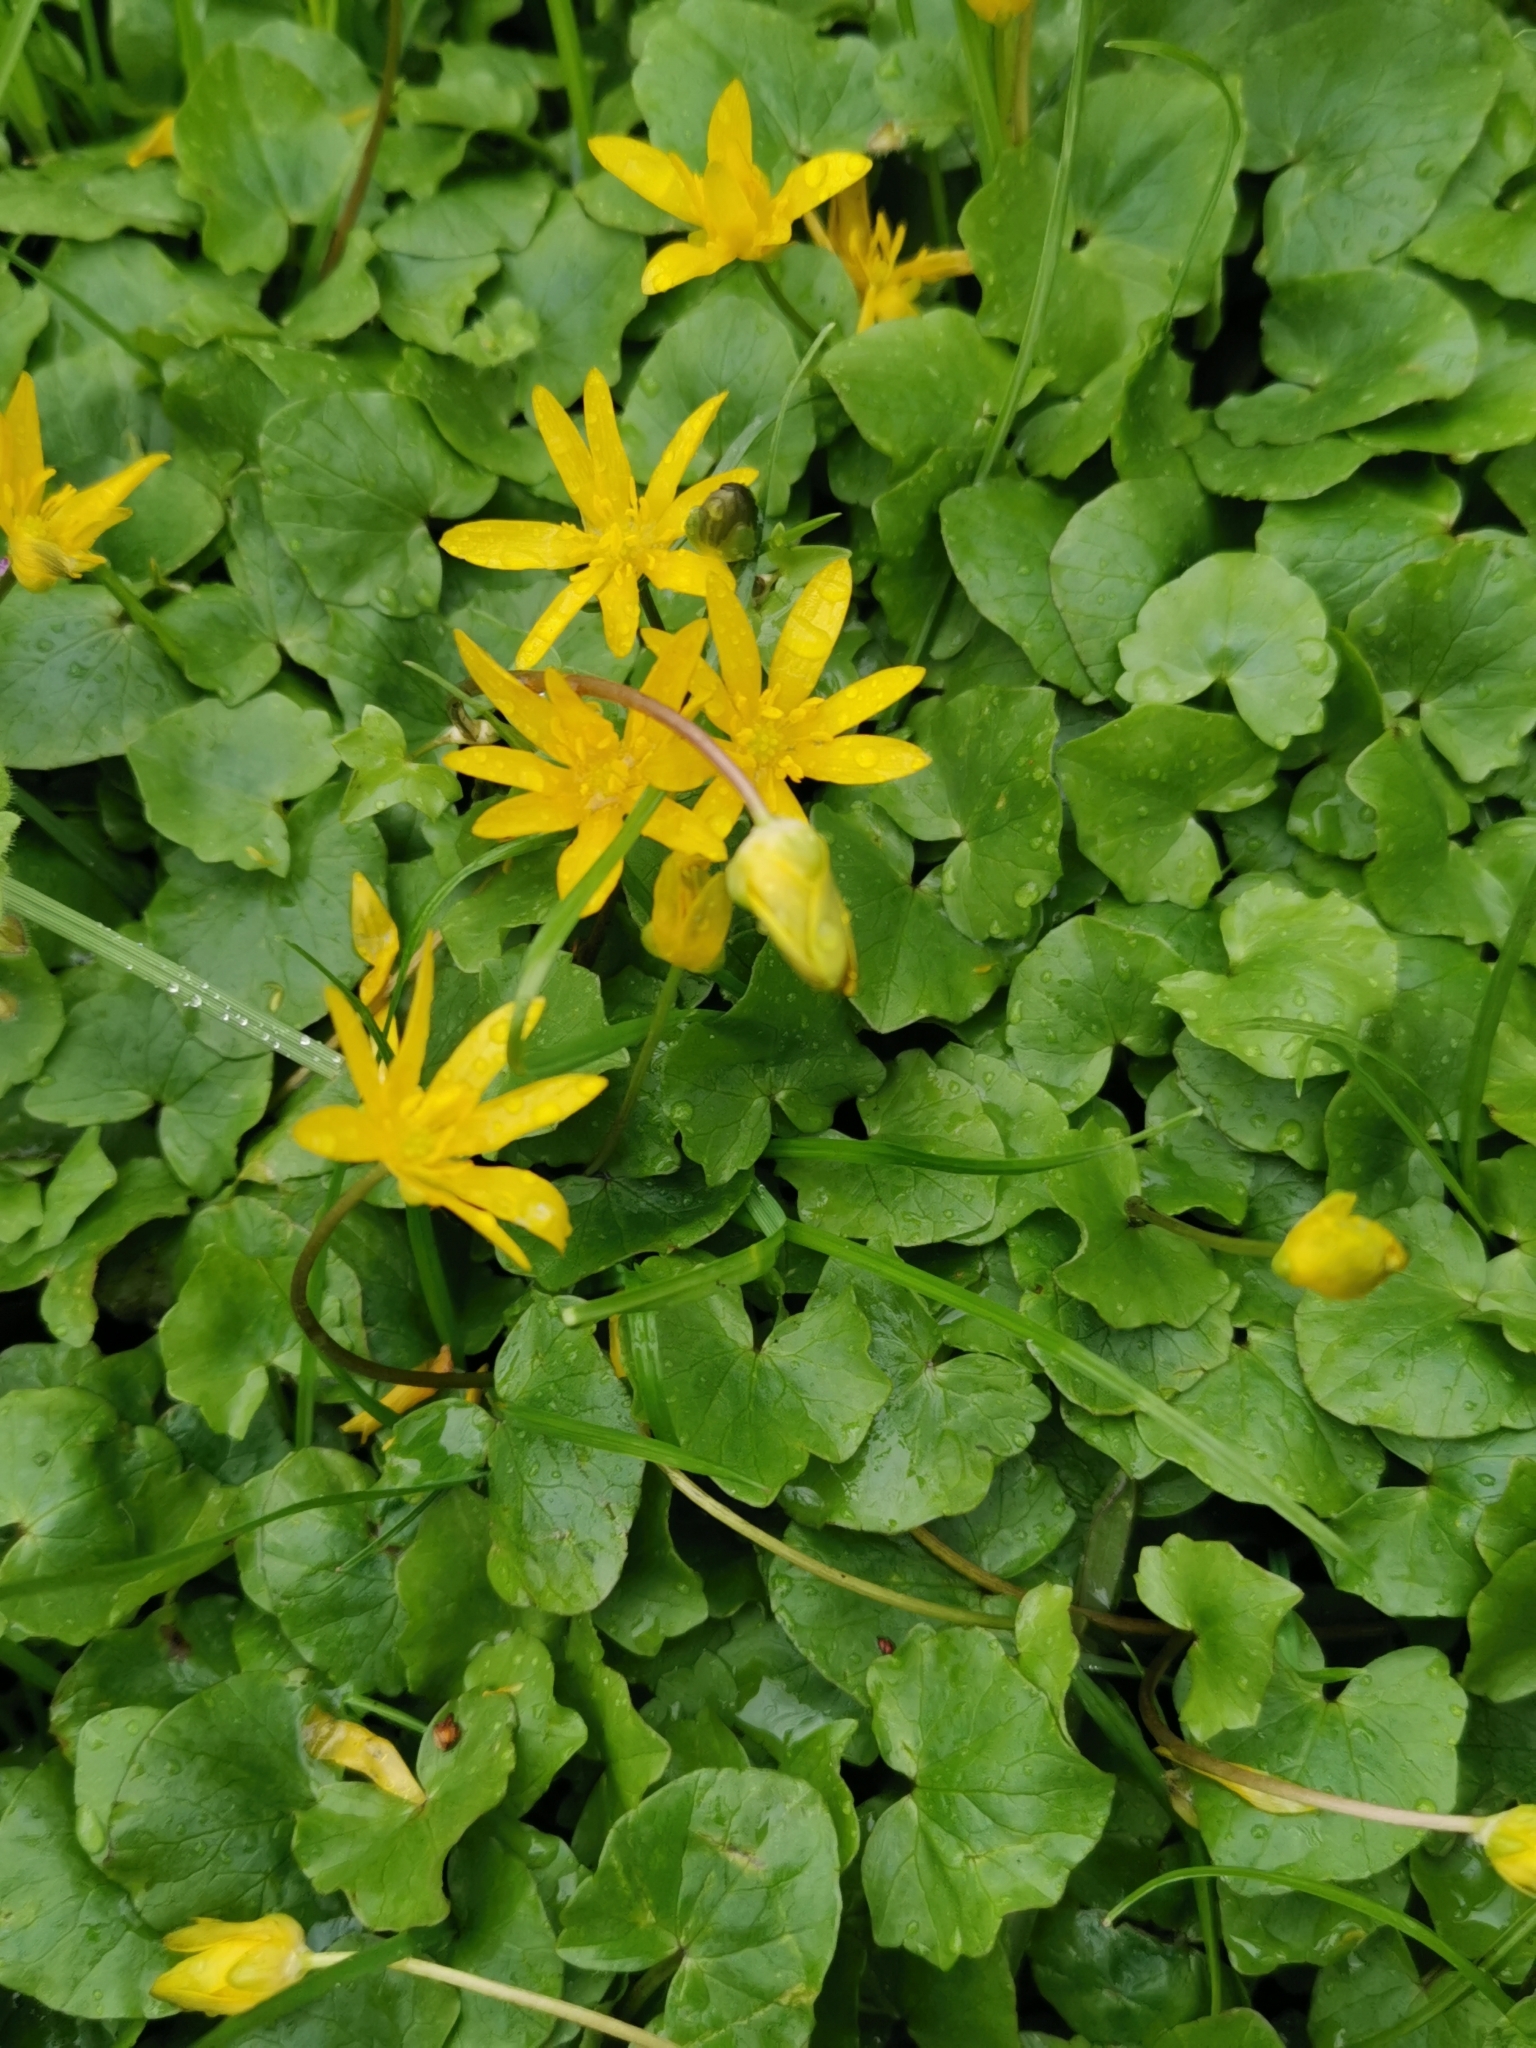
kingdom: Plantae
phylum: Tracheophyta
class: Magnoliopsida
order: Ranunculales
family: Ranunculaceae
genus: Ficaria
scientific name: Ficaria verna
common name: Lesser celandine
